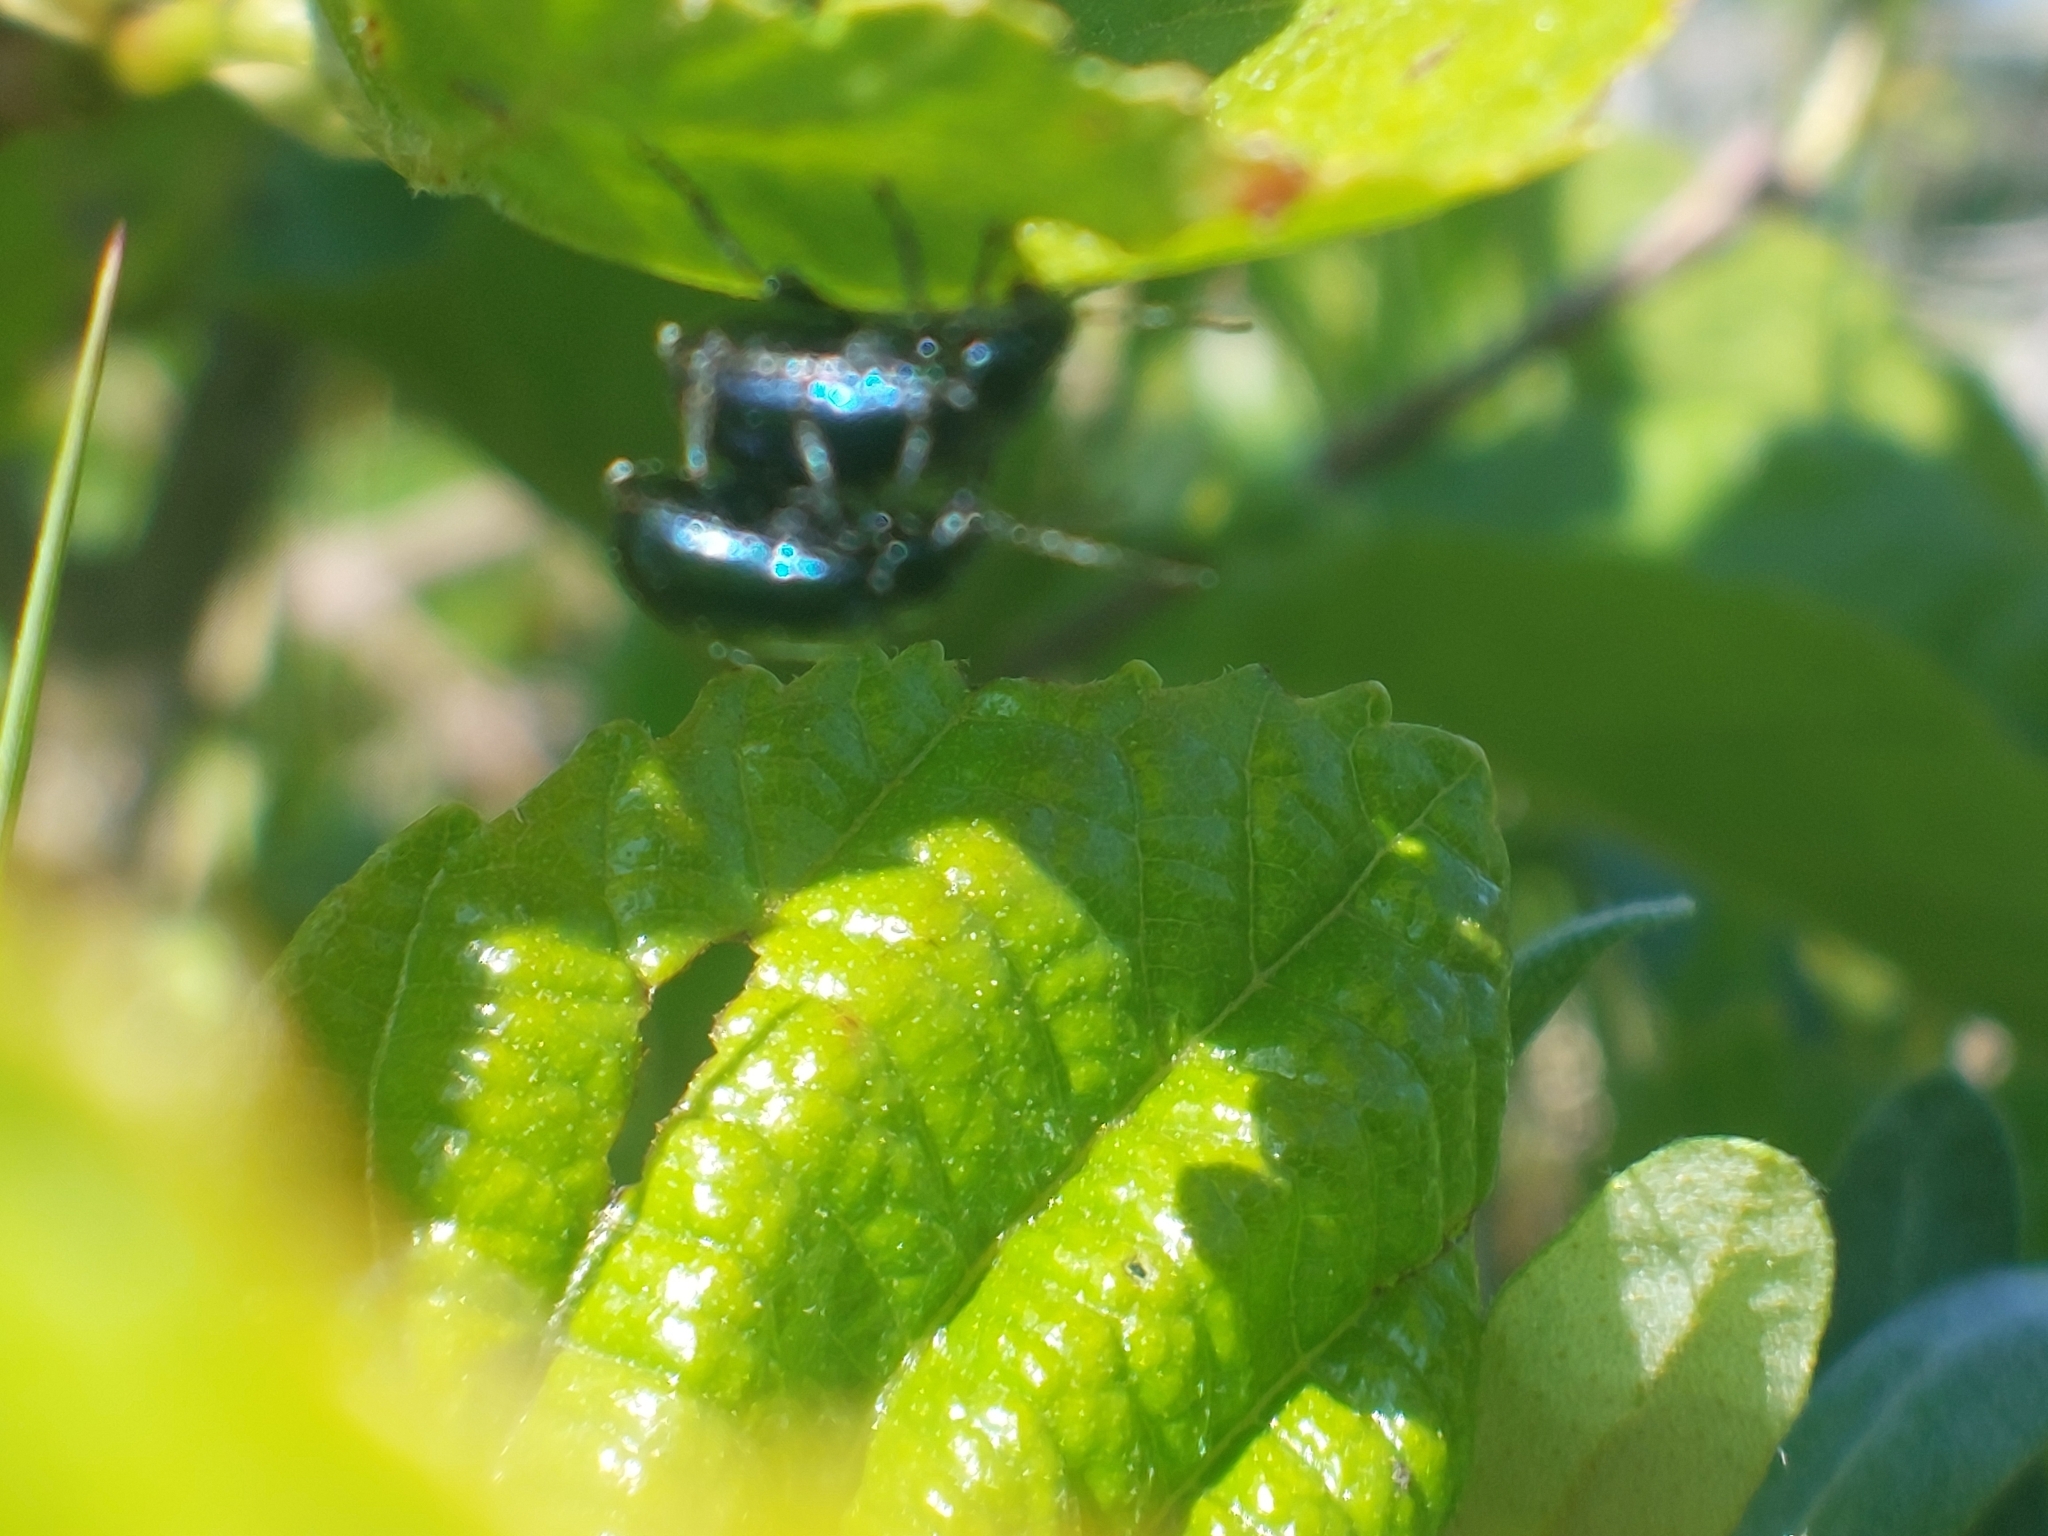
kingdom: Animalia
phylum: Arthropoda
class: Insecta
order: Coleoptera
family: Chrysomelidae
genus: Agelastica
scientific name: Agelastica alni
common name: Alder leaf beetle
